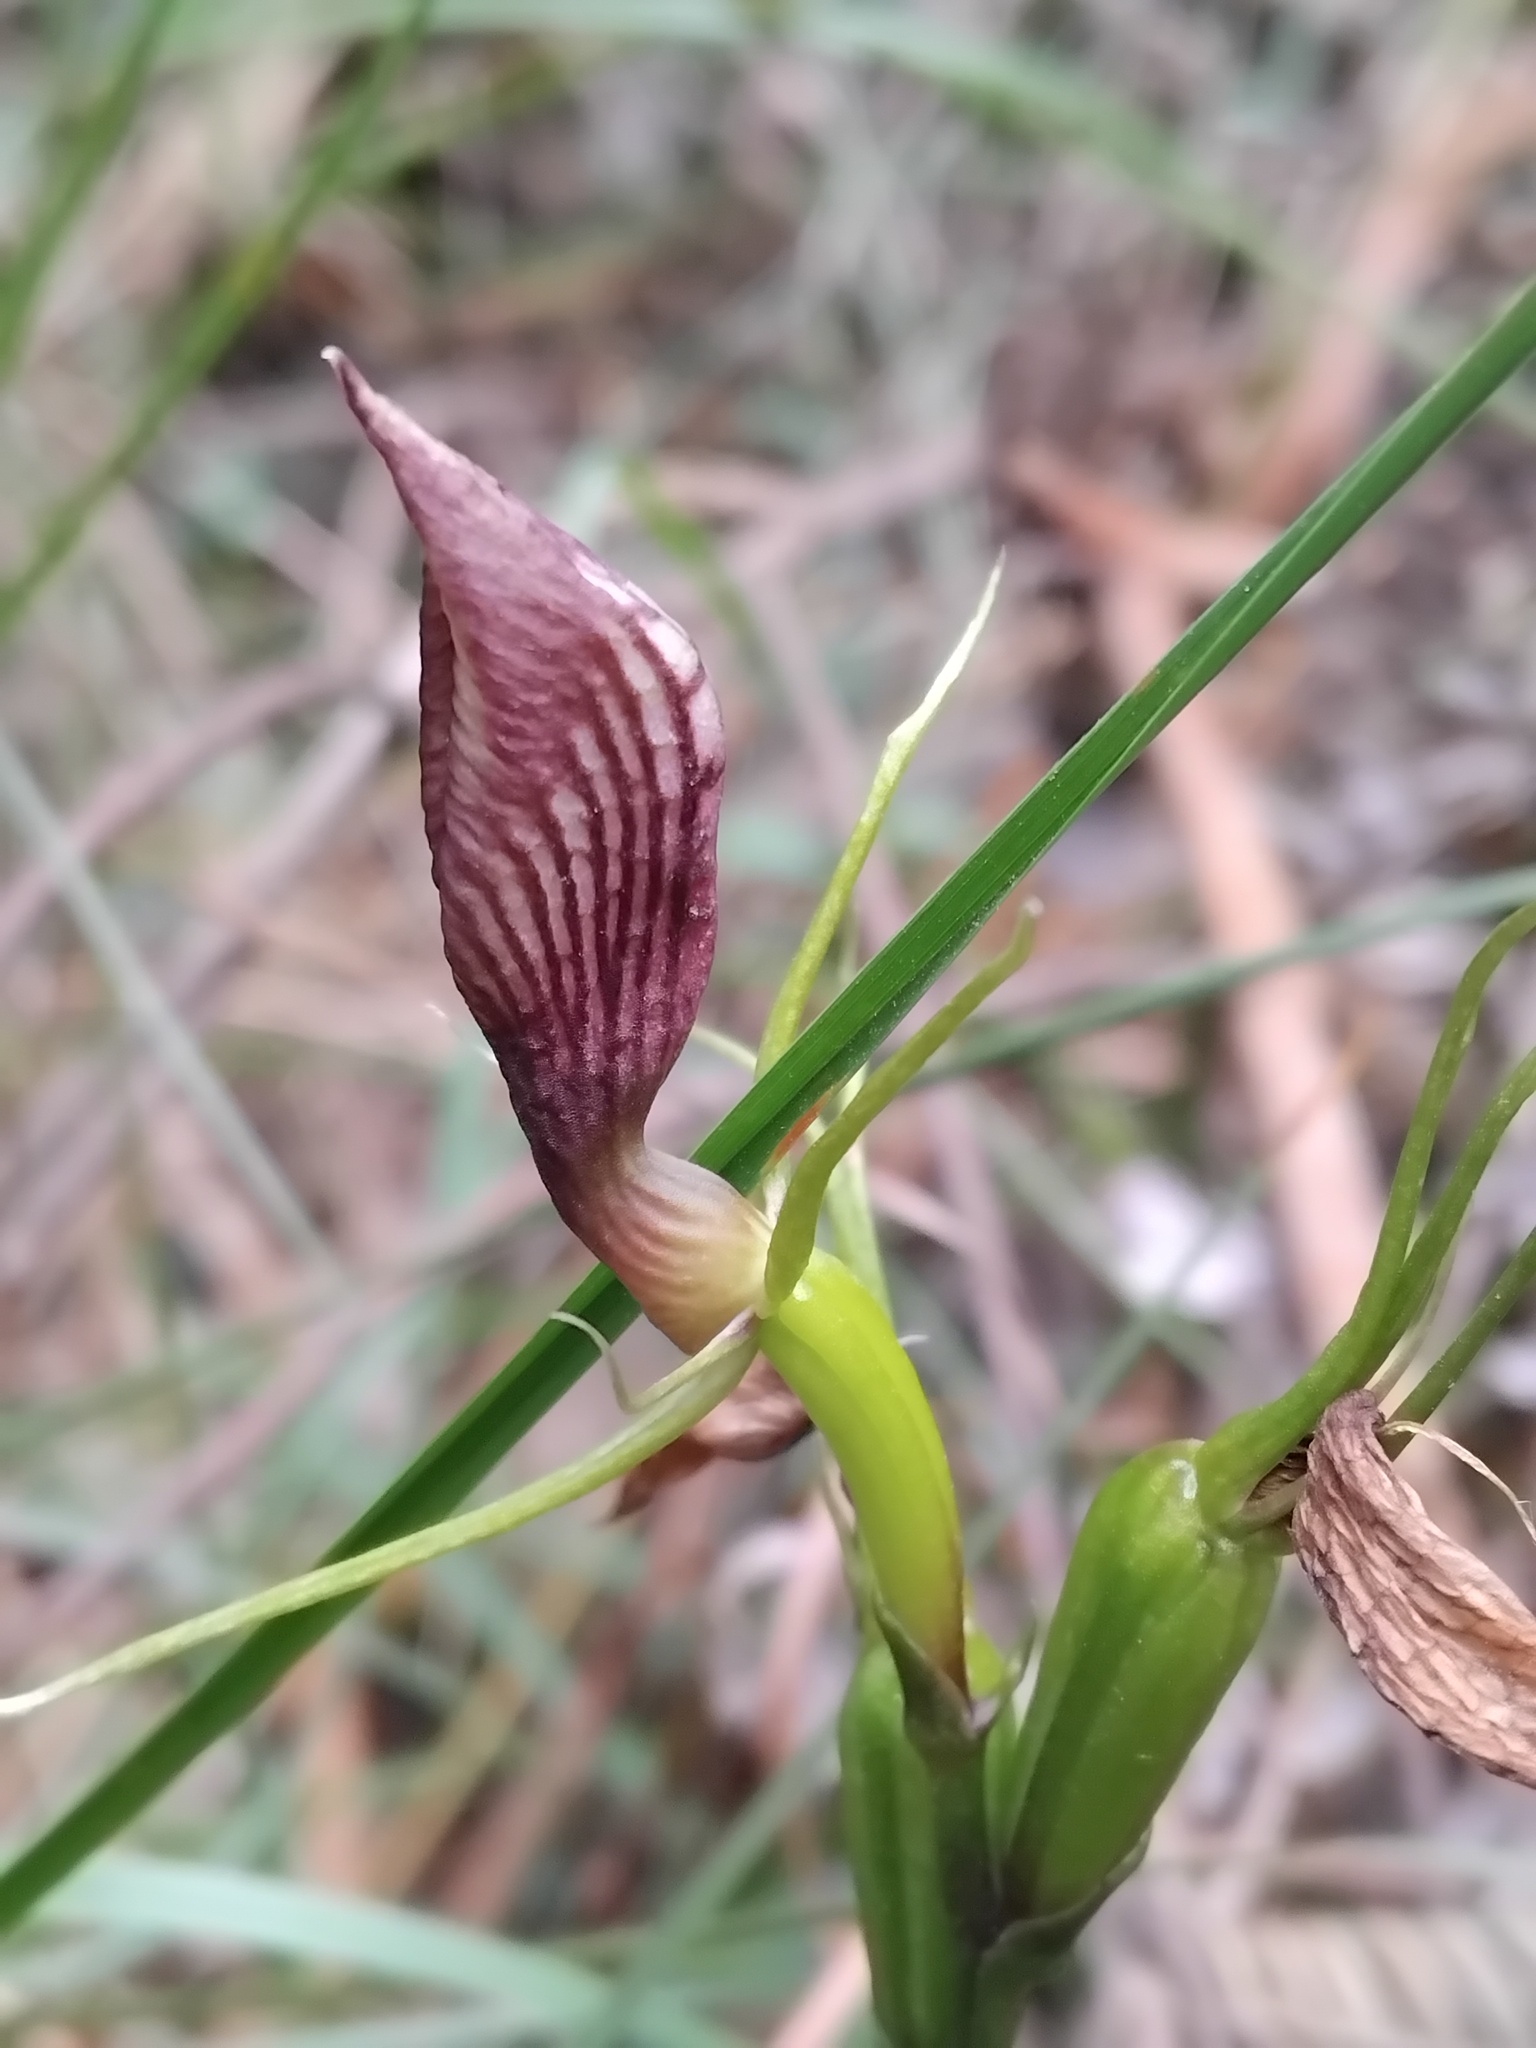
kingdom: Plantae
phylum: Tracheophyta
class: Liliopsida
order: Asparagales
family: Orchidaceae
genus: Cryptostylis
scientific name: Cryptostylis erecta
